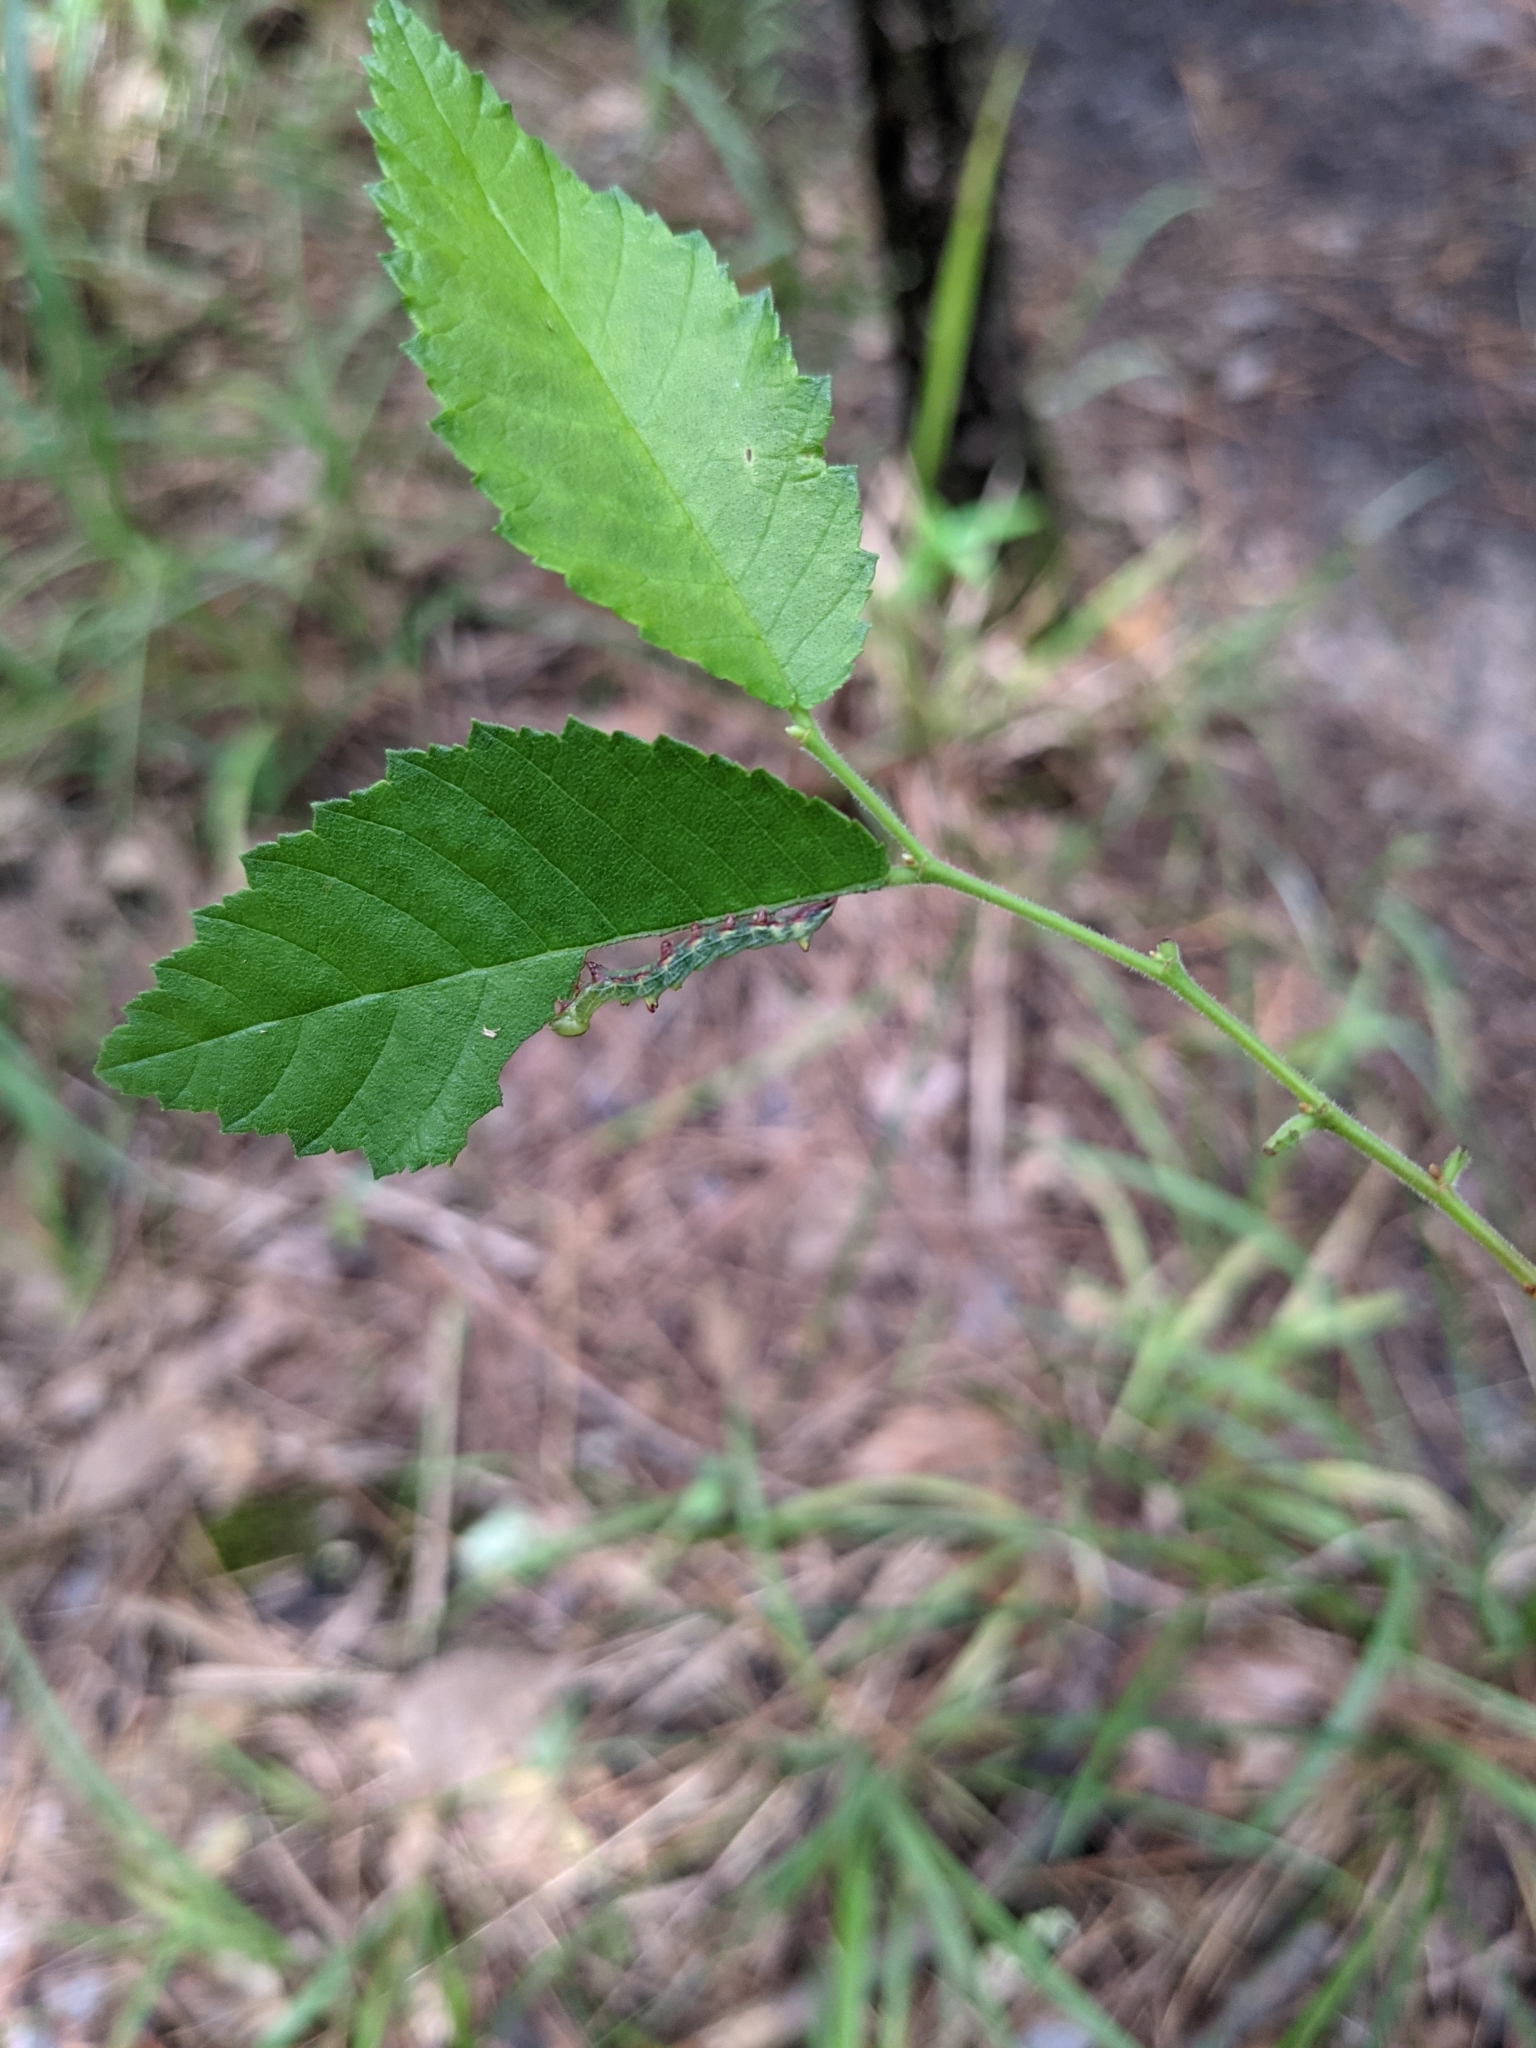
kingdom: Animalia
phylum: Arthropoda
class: Insecta
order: Lepidoptera
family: Notodontidae
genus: Nerice
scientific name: Nerice bidentata
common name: Double-toothed prominent
